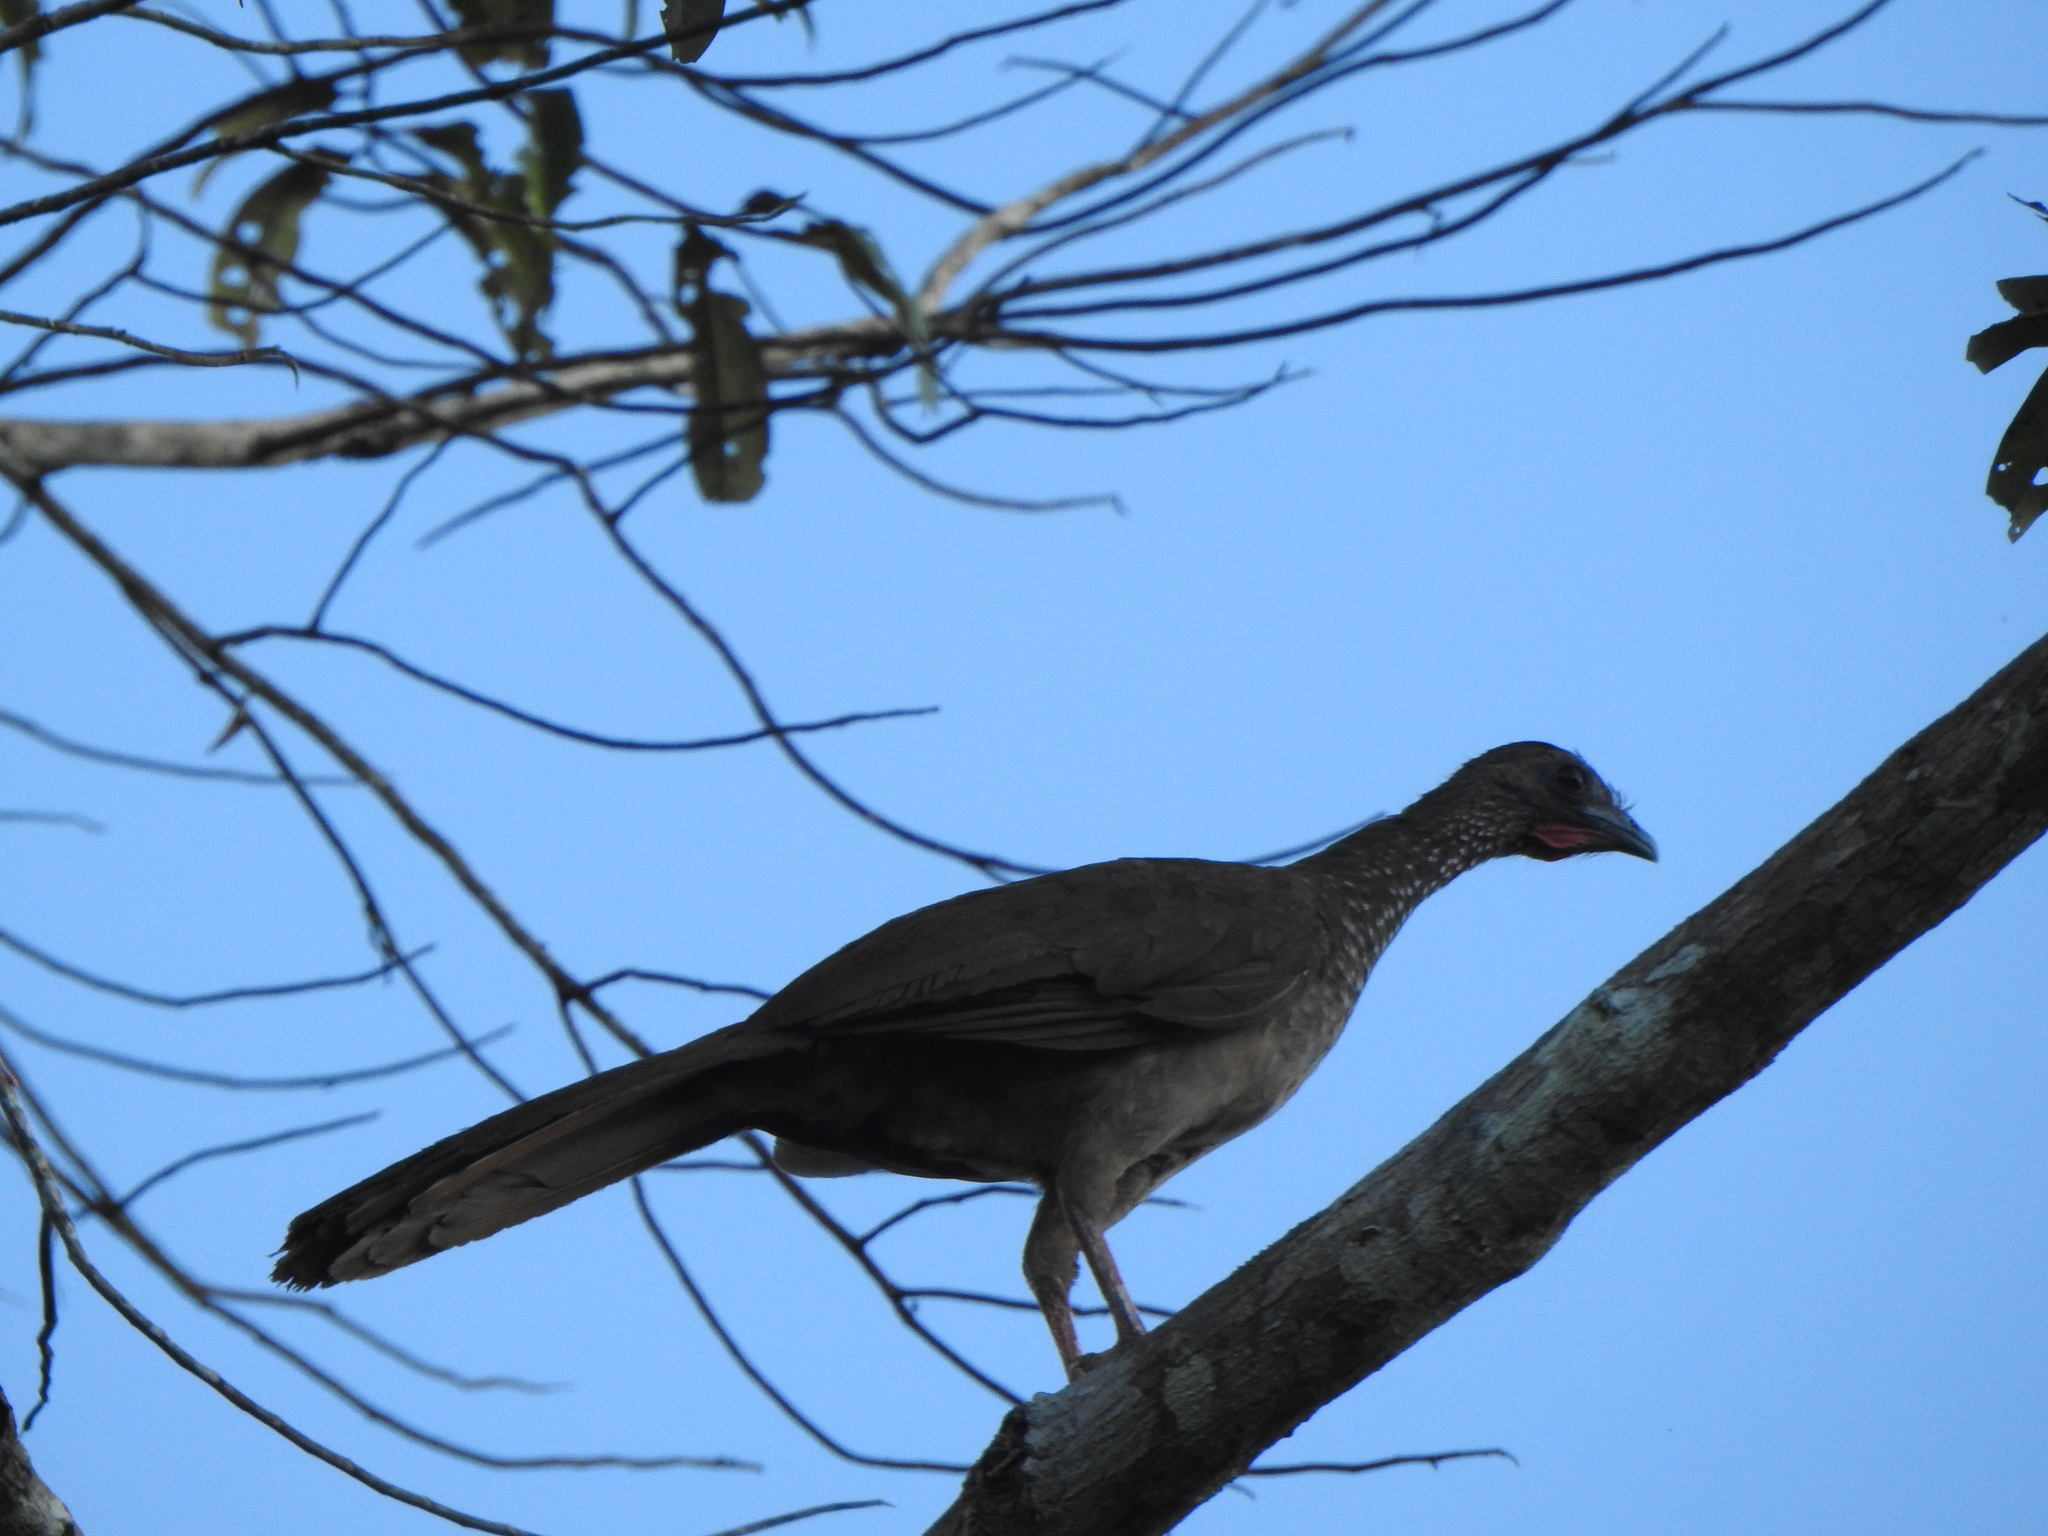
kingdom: Animalia
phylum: Chordata
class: Aves
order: Galliformes
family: Cracidae
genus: Ortalis
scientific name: Ortalis guttata
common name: Speckled chachalaca
